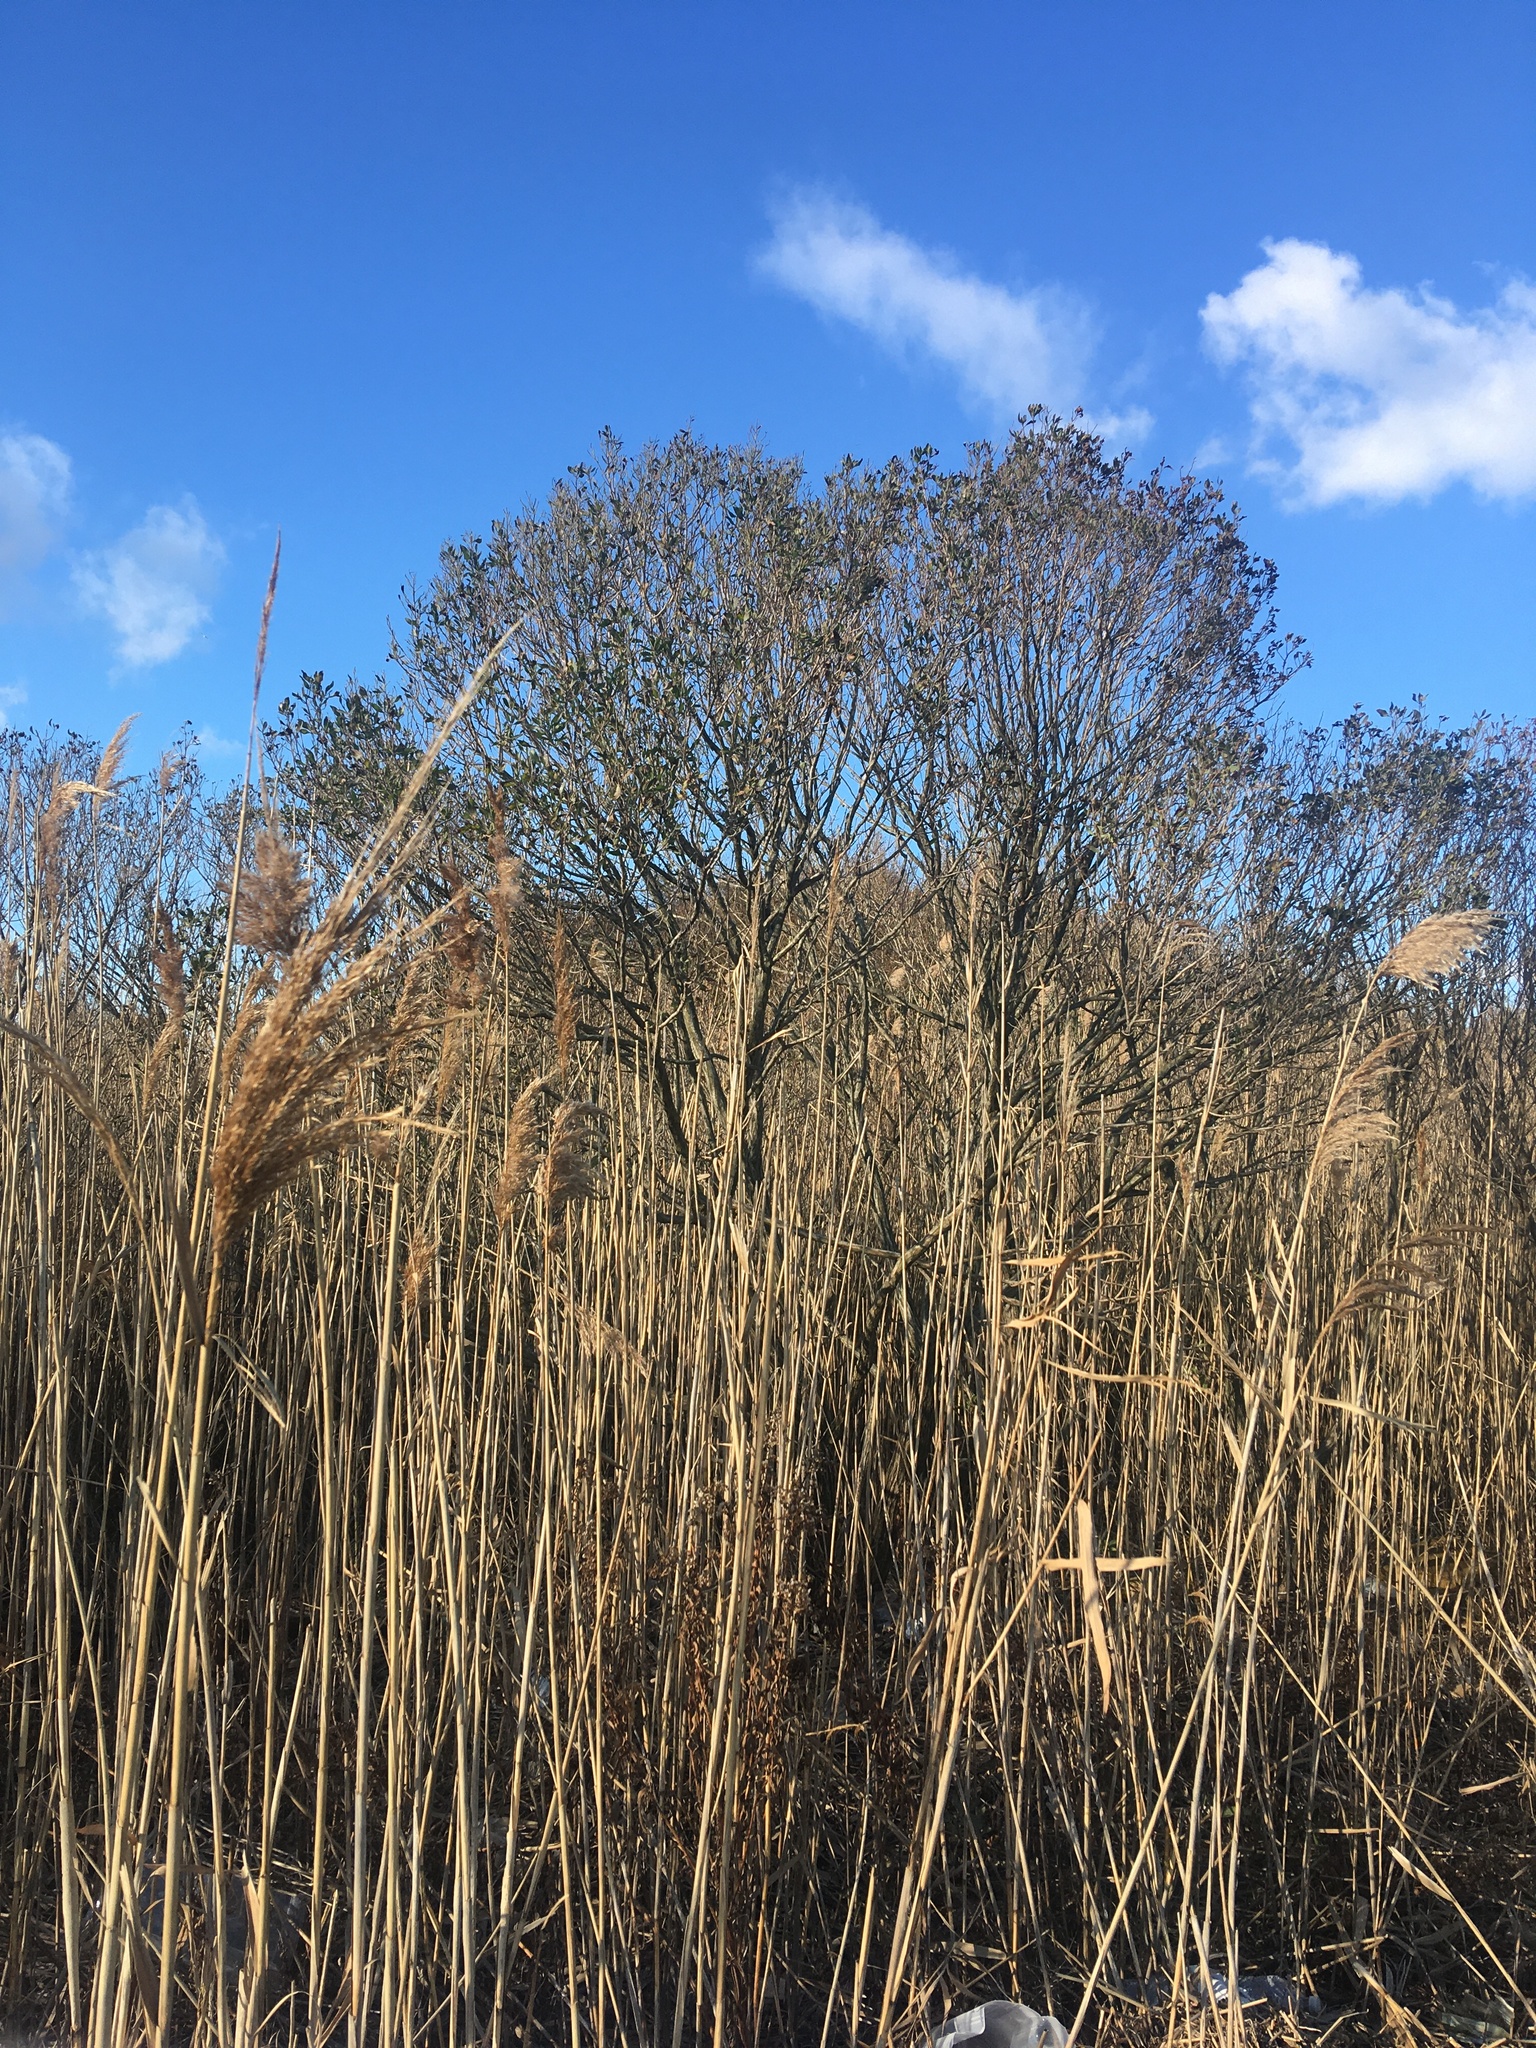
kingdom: Plantae
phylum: Tracheophyta
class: Magnoliopsida
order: Asterales
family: Asteraceae
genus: Baccharis
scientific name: Baccharis halimifolia
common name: Eastern baccharis
